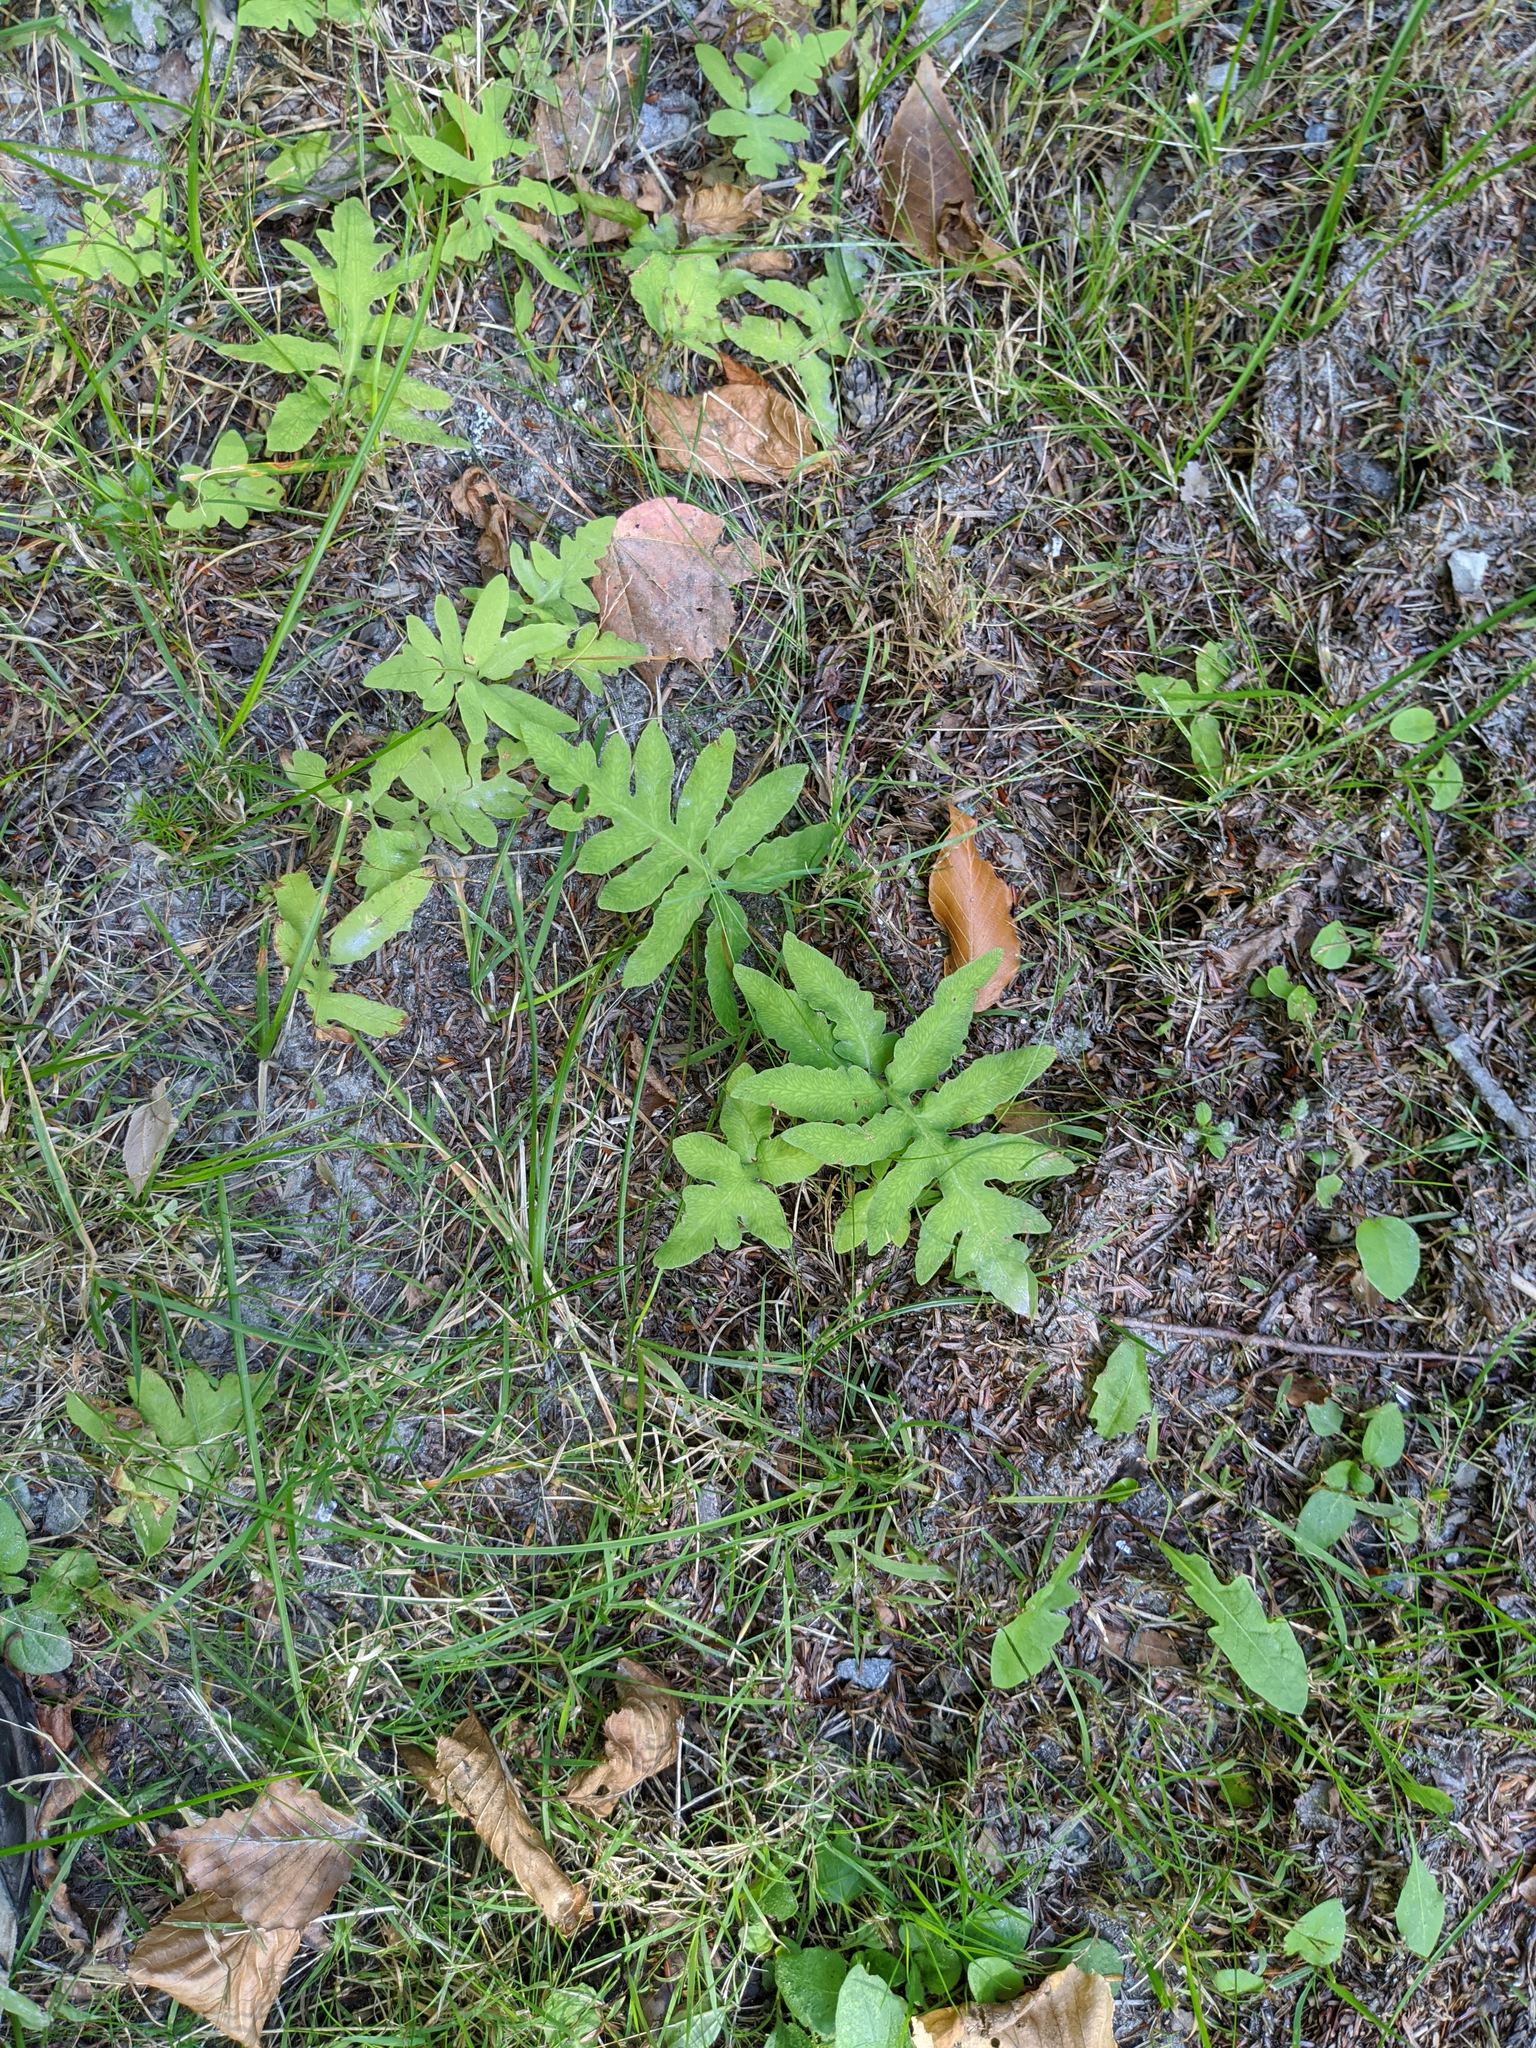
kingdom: Plantae
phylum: Tracheophyta
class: Polypodiopsida
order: Polypodiales
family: Onocleaceae
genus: Onoclea
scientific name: Onoclea sensibilis
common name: Sensitive fern
